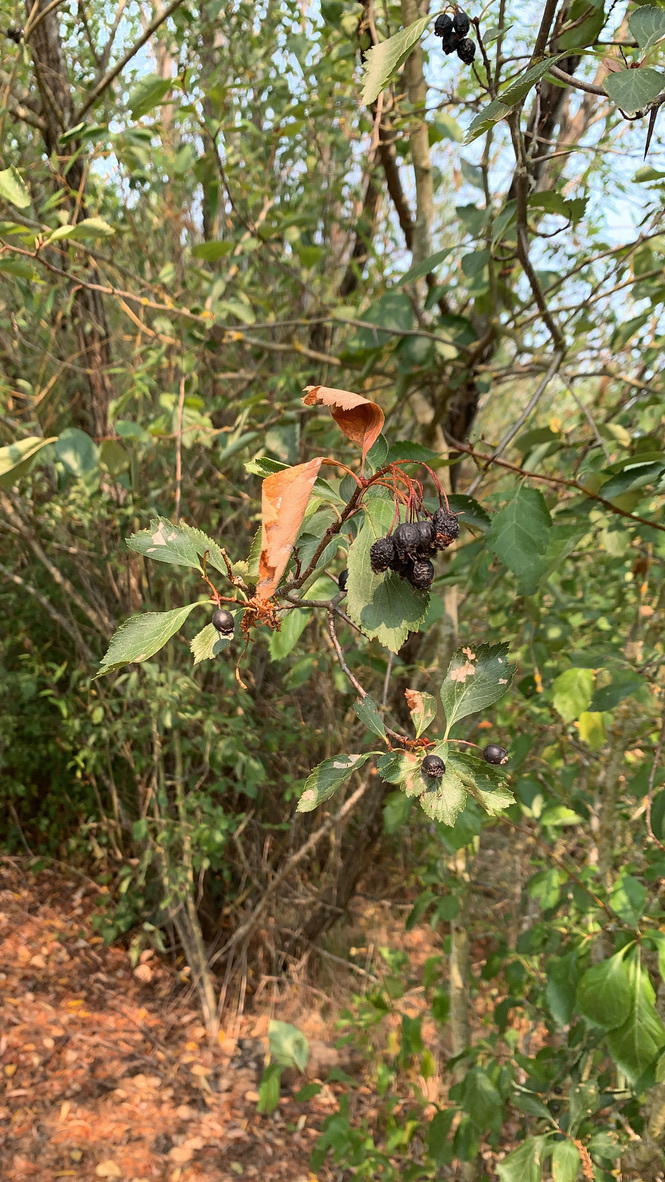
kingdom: Plantae
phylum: Tracheophyta
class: Magnoliopsida
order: Rosales
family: Rosaceae
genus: Crataegus
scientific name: Crataegus douglasii
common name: Black hawthorn
